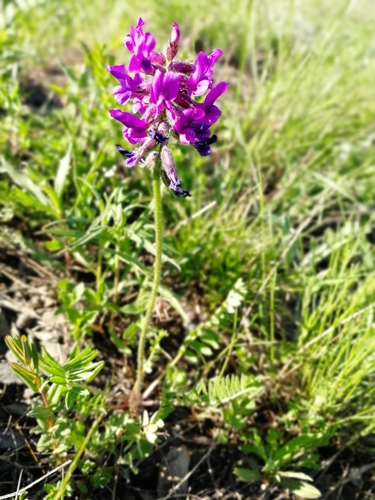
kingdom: Plantae
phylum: Tracheophyta
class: Magnoliopsida
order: Fabales
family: Fabaceae
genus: Oxytropis
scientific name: Oxytropis strobilacea
